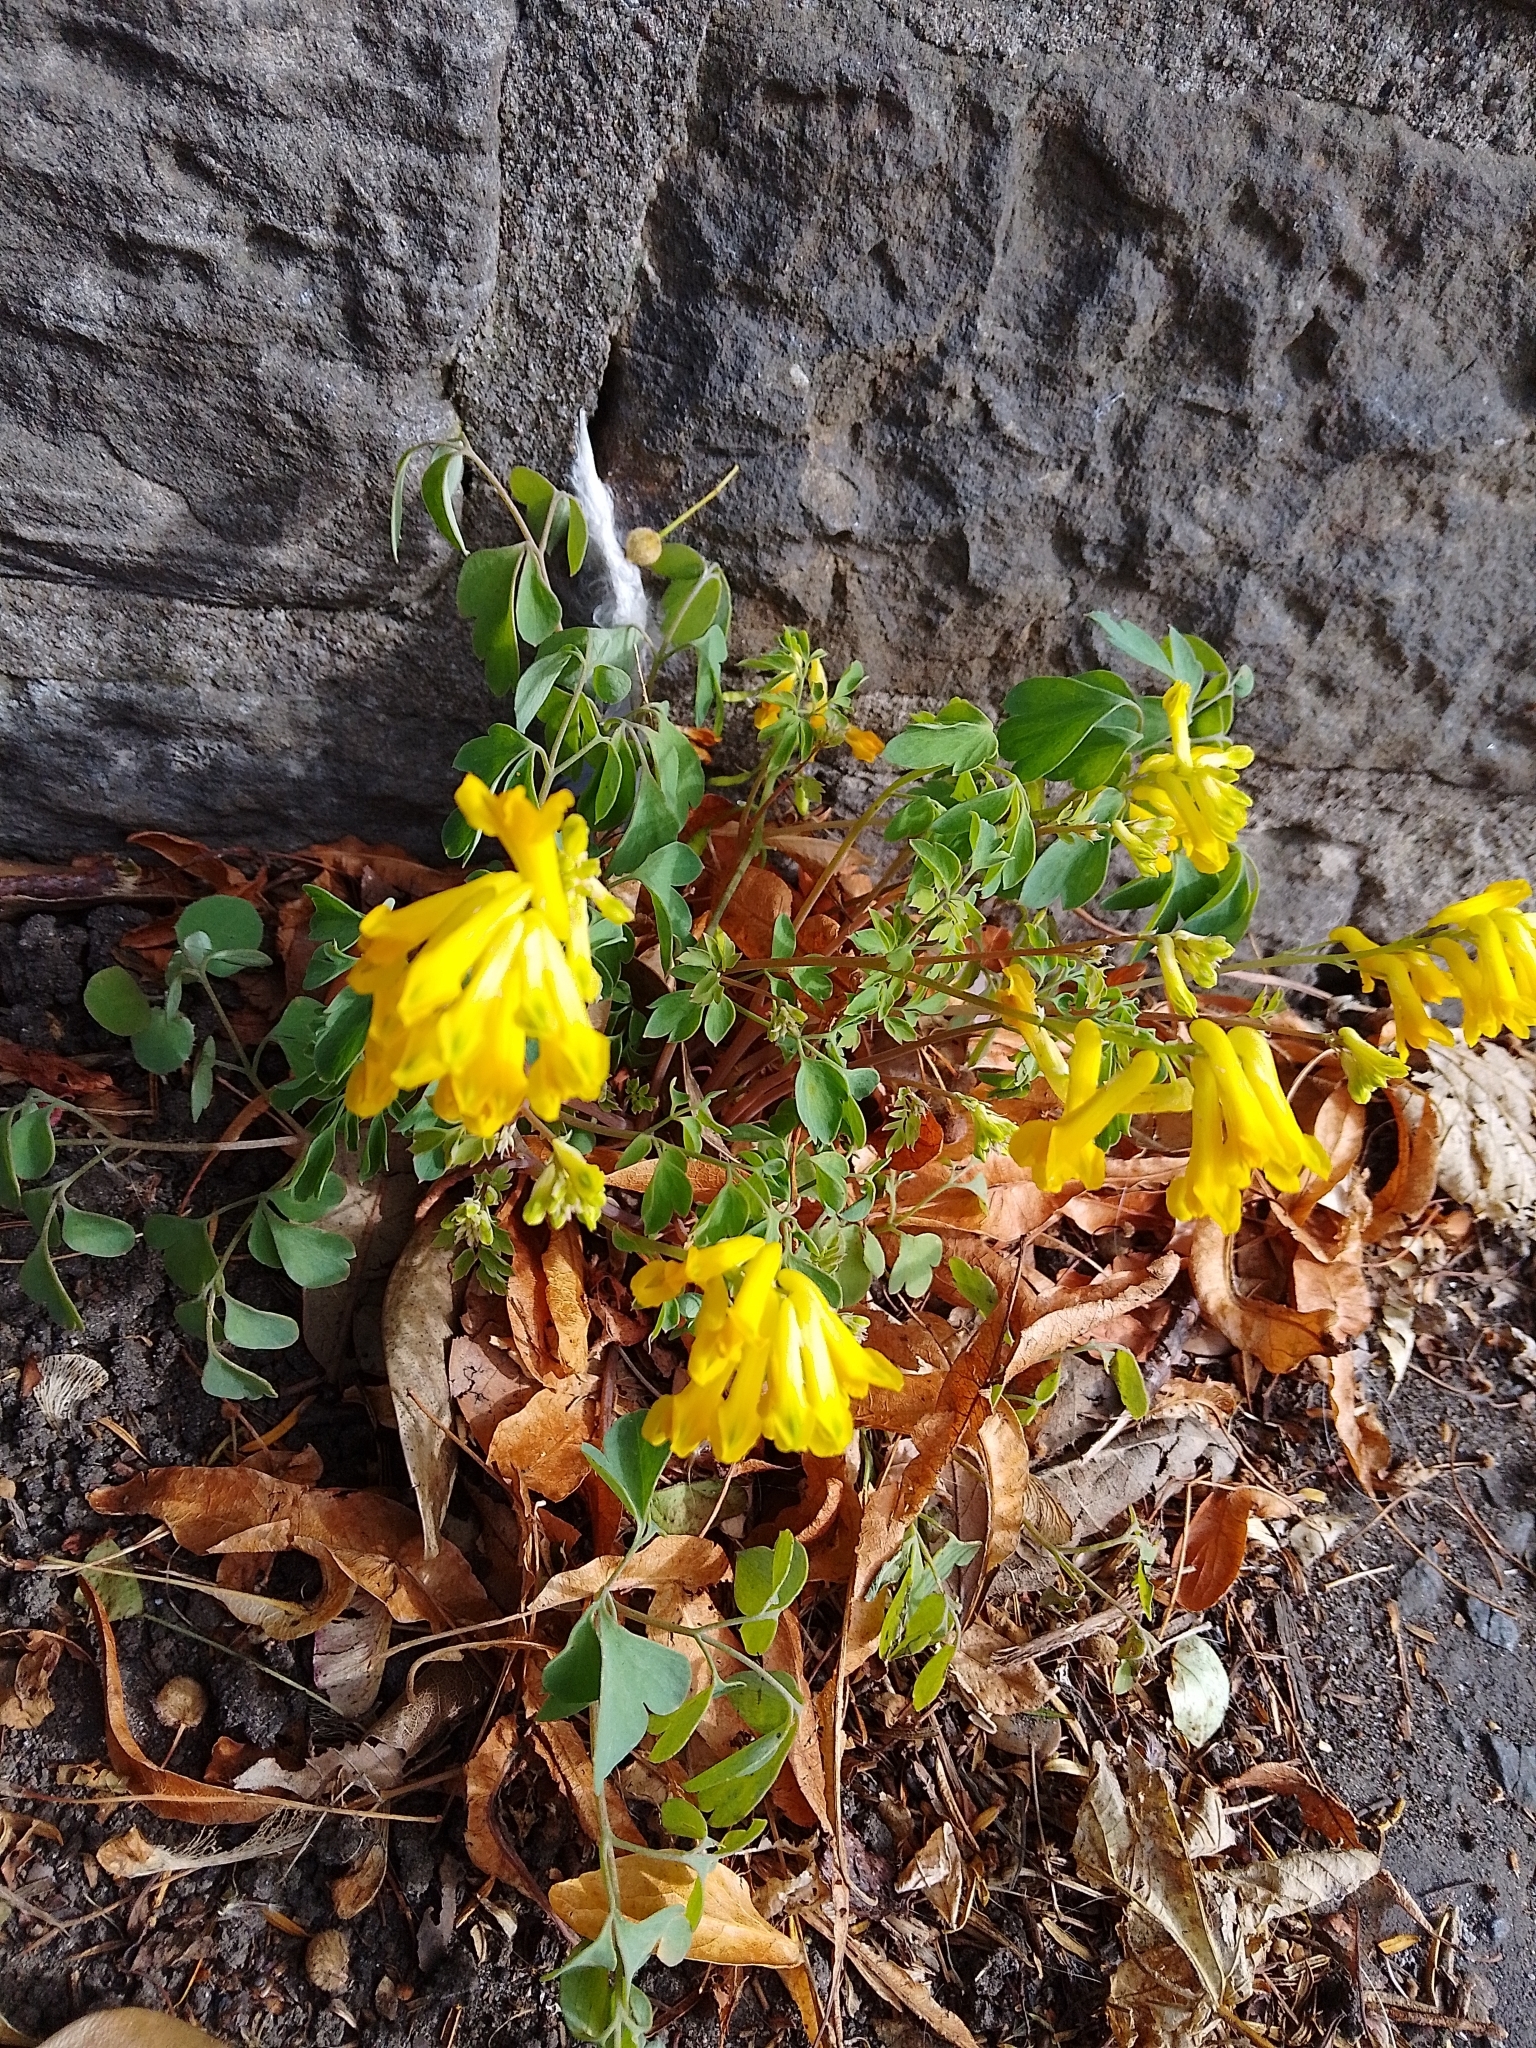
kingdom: Plantae
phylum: Tracheophyta
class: Magnoliopsida
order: Ranunculales
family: Papaveraceae
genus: Pseudofumaria
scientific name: Pseudofumaria lutea
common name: Yellow corydalis
